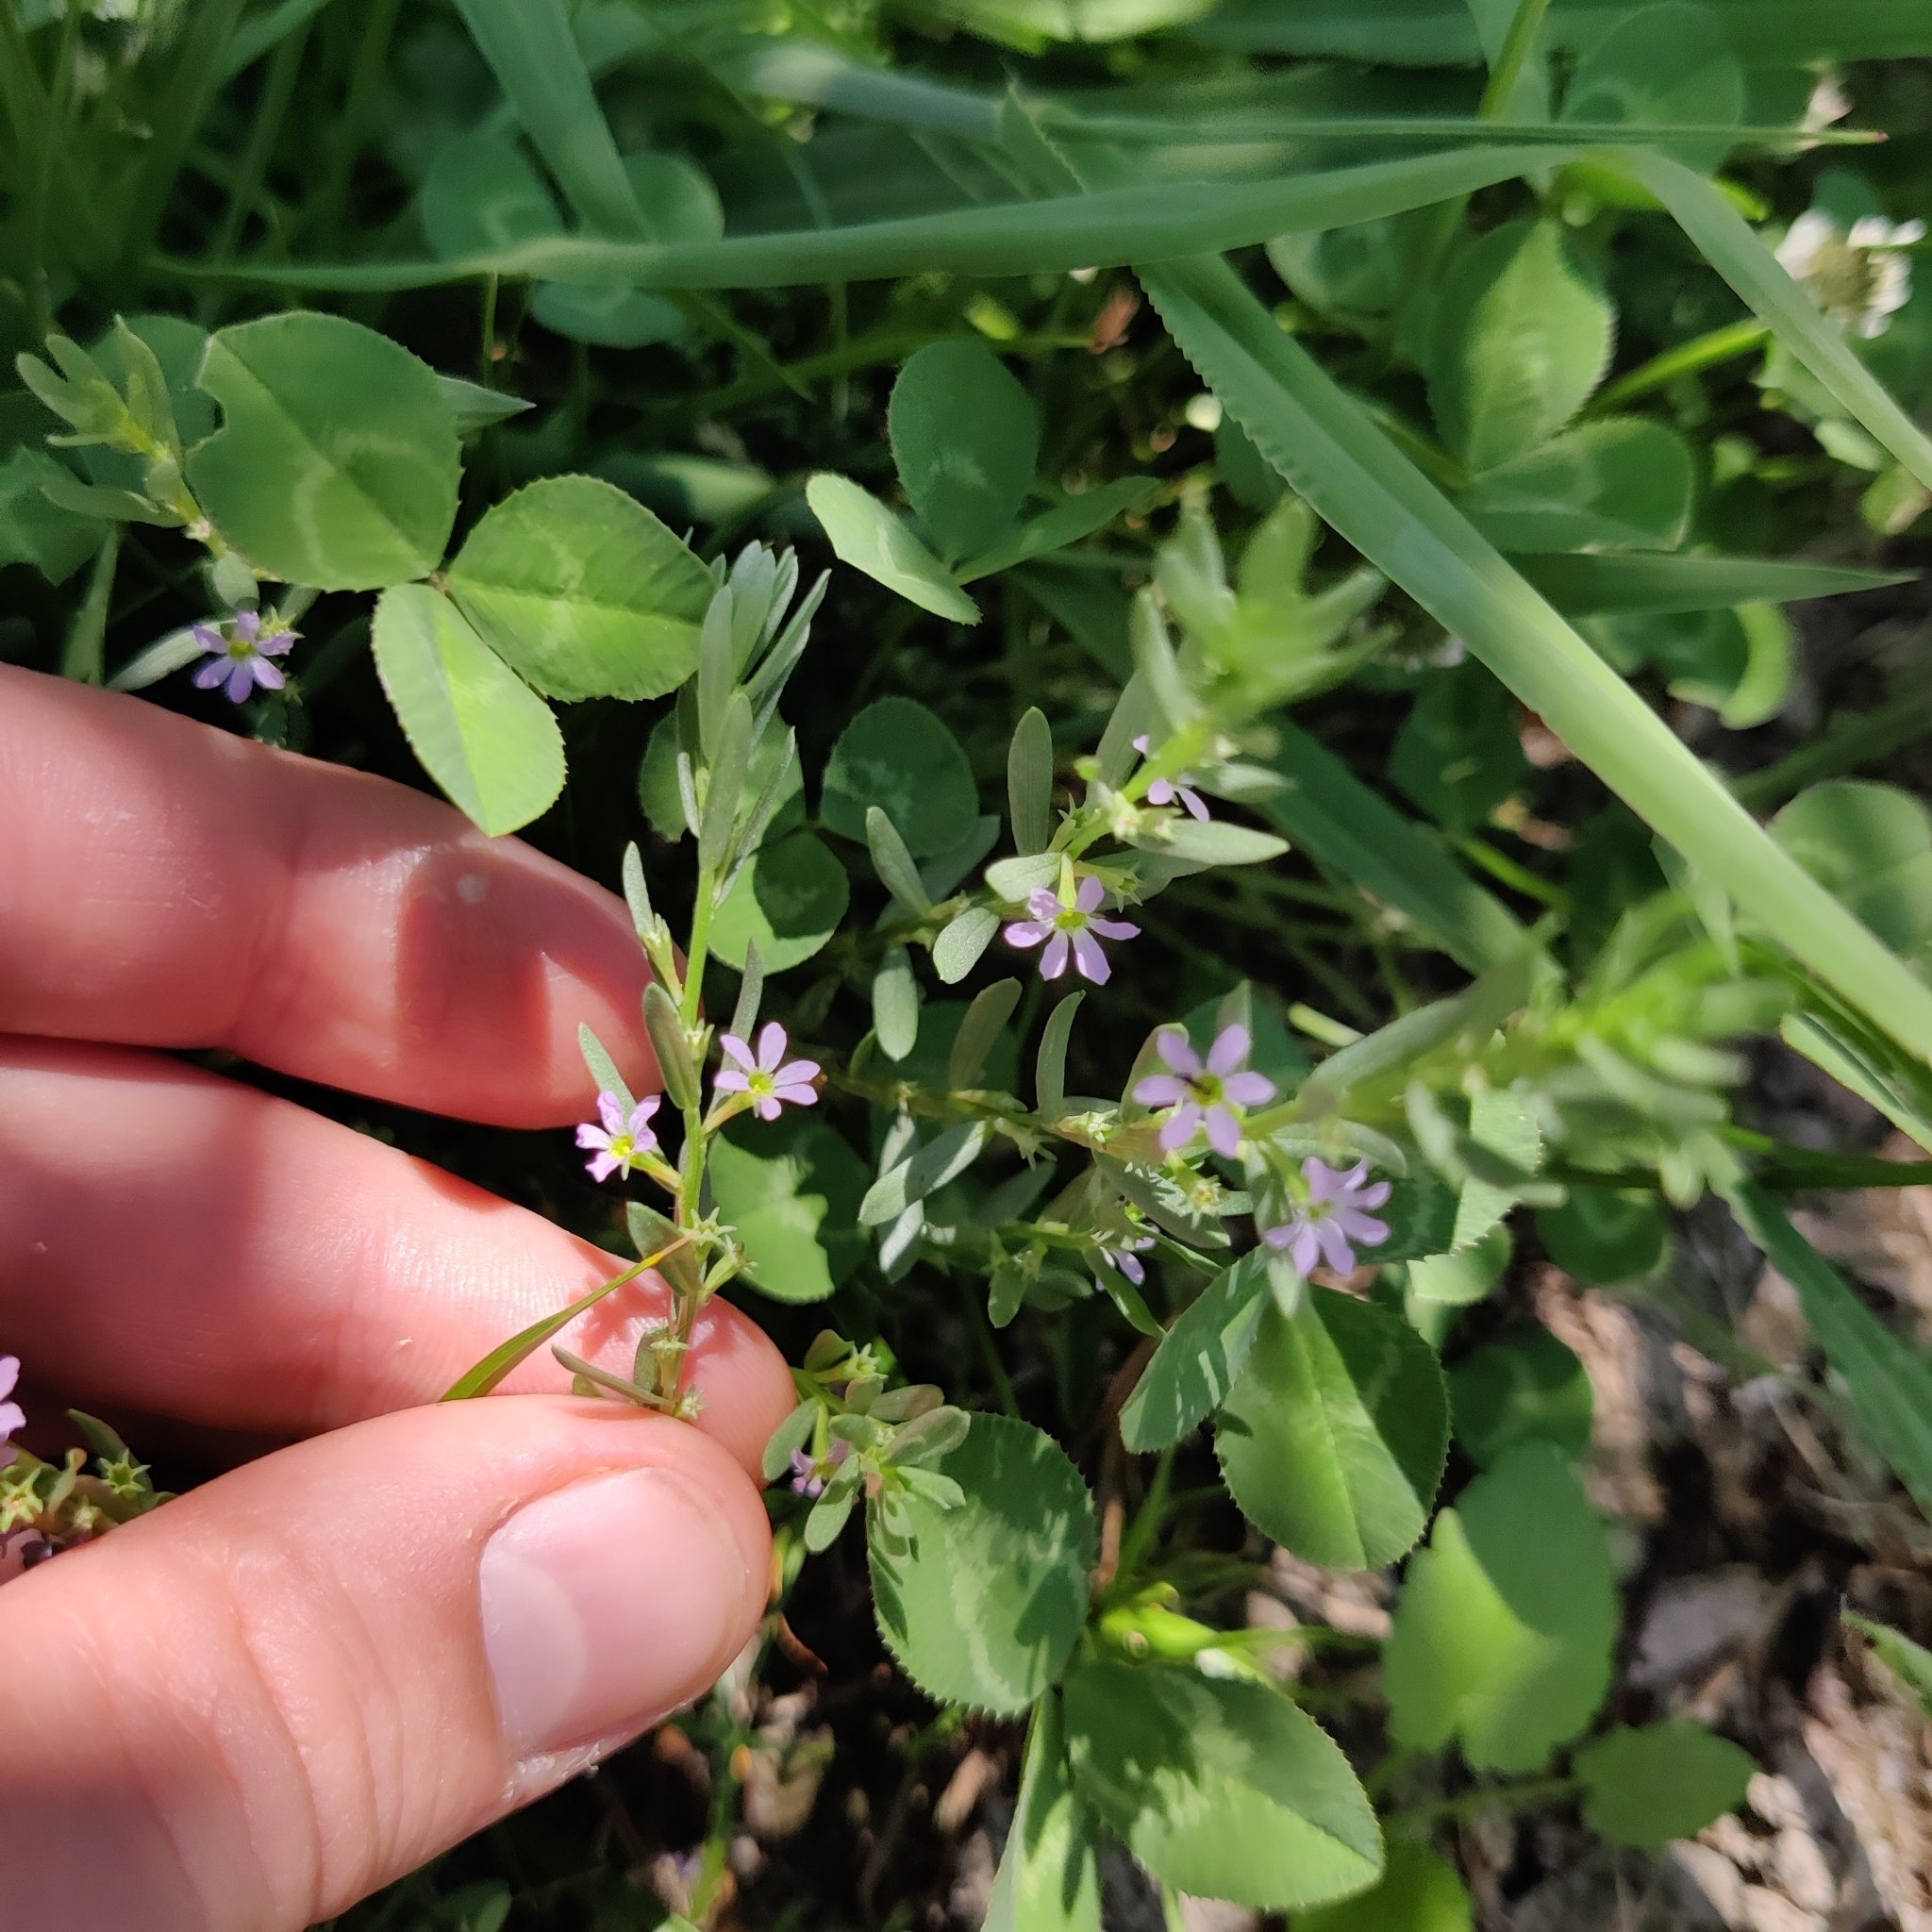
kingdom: Plantae
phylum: Tracheophyta
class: Magnoliopsida
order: Myrtales
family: Lythraceae
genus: Lythrum
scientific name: Lythrum hyssopifolia
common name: Grass-poly
